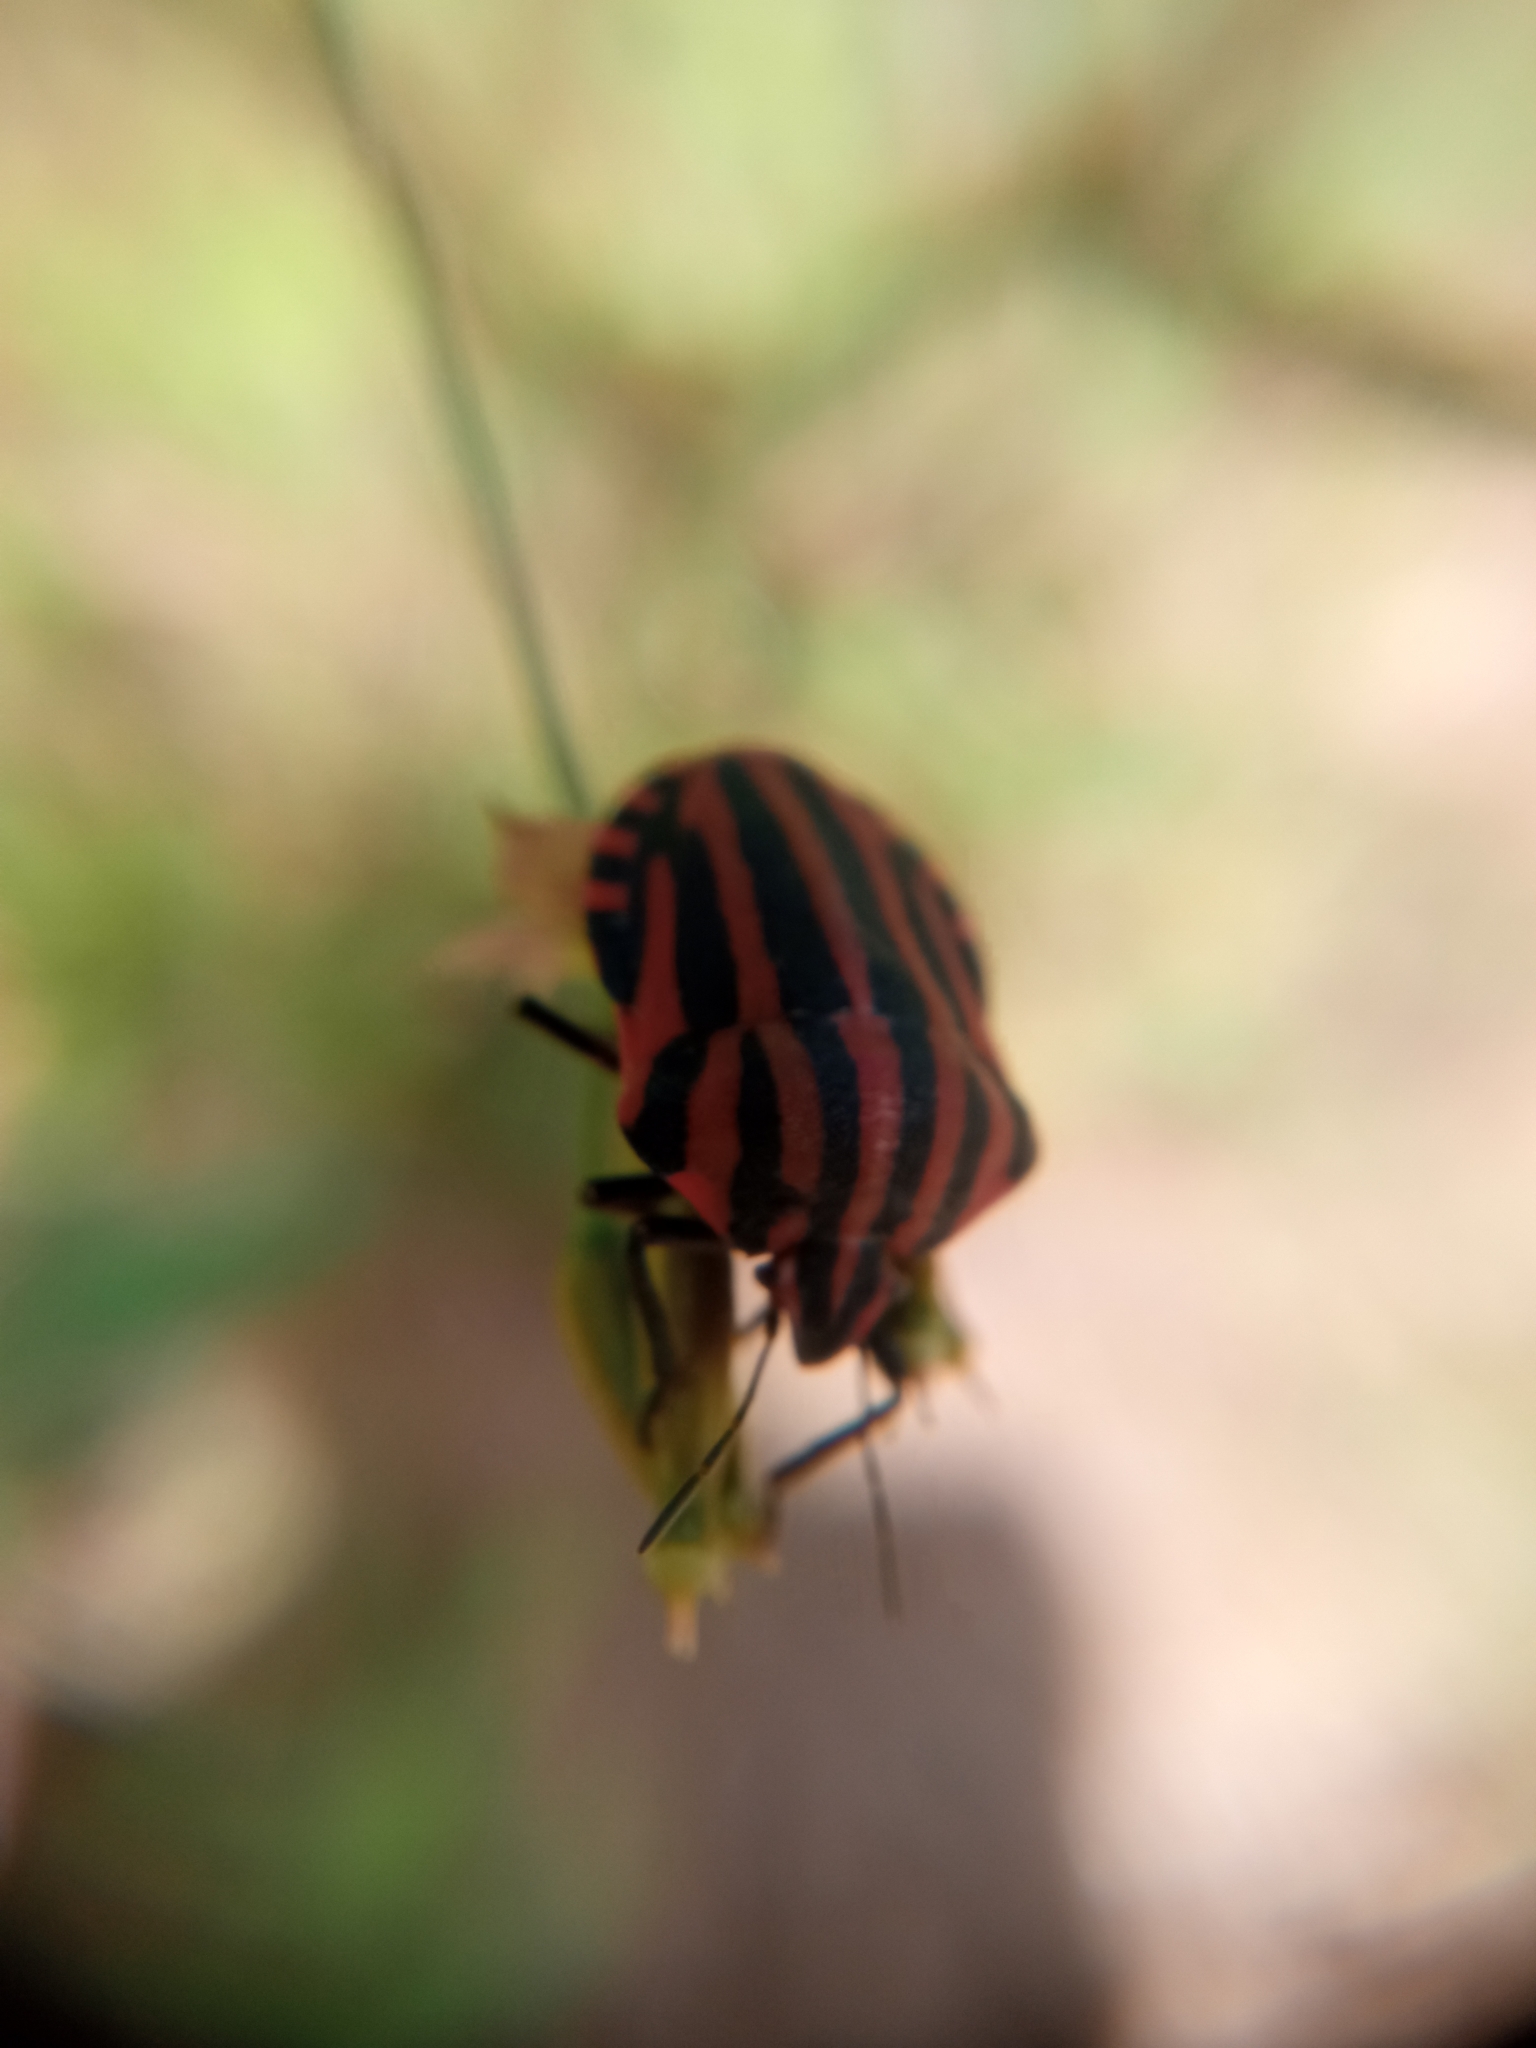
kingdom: Animalia
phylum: Arthropoda
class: Insecta
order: Hemiptera
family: Pentatomidae
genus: Graphosoma
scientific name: Graphosoma italicum
